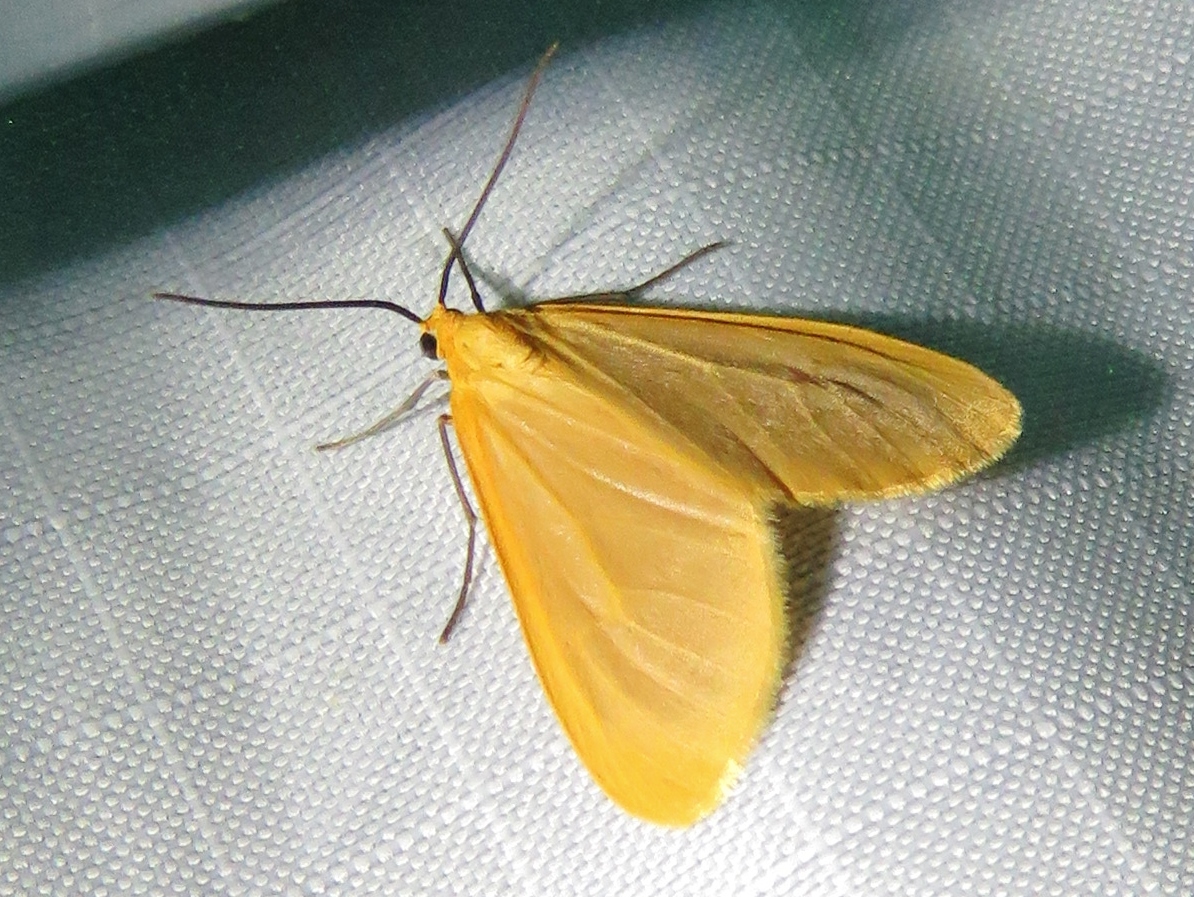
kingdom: Animalia
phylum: Arthropoda
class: Insecta
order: Lepidoptera
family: Geometridae
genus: Eubaphe
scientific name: Eubaphe unicolor
